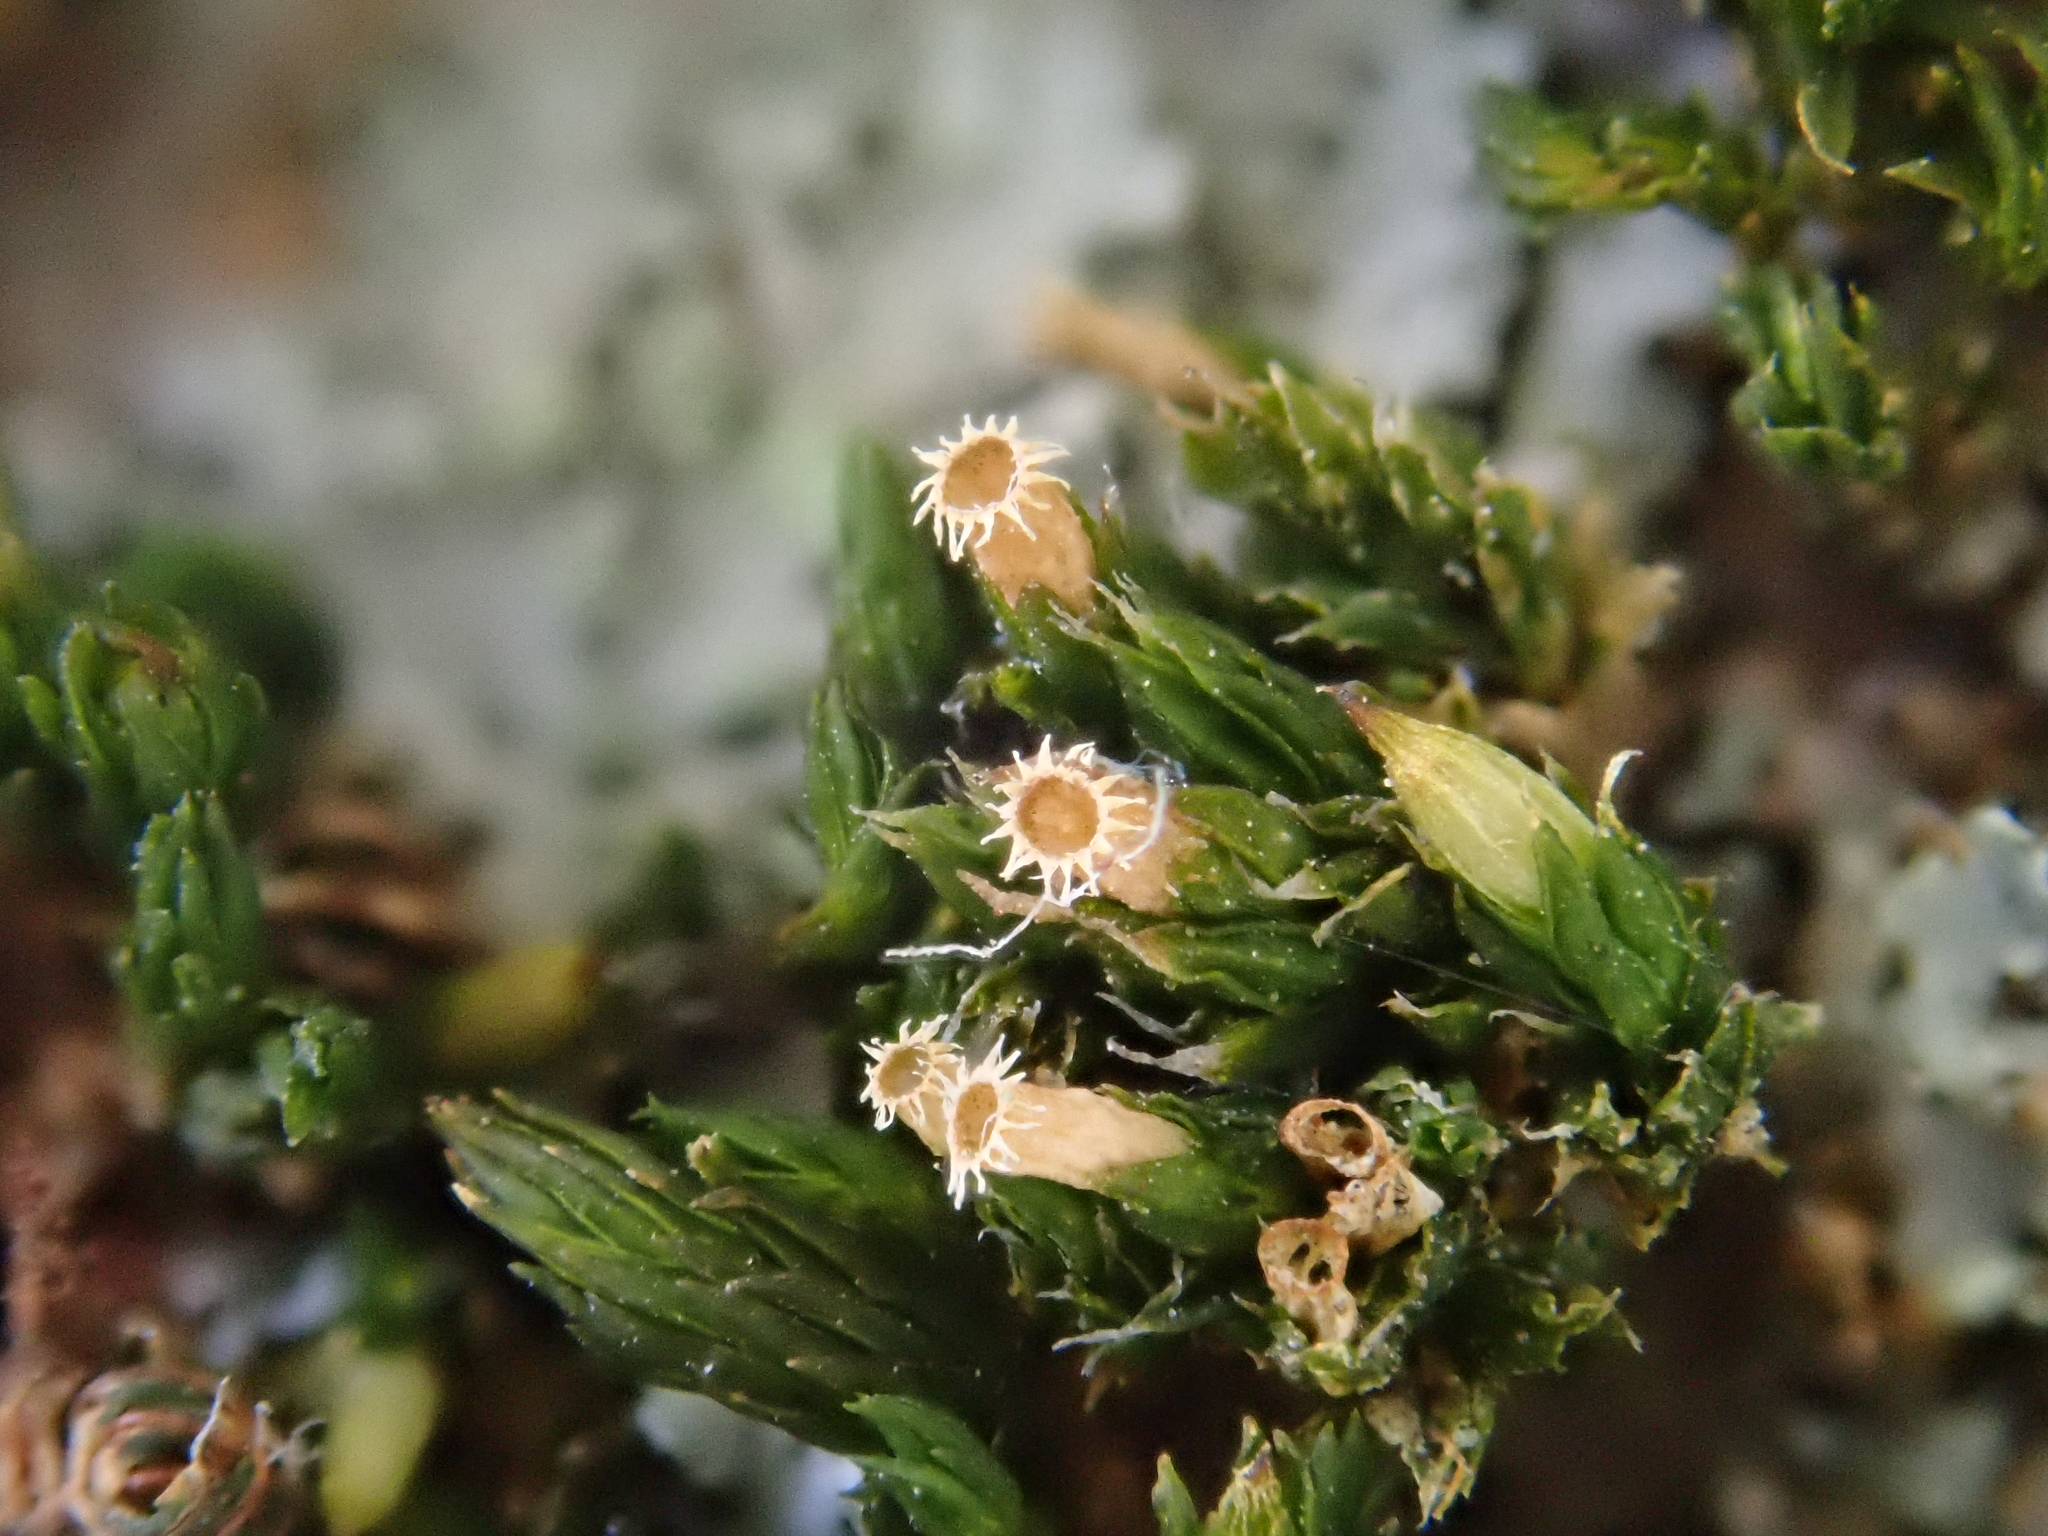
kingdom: Plantae
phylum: Bryophyta
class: Bryopsida
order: Orthotrichales
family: Orthotrichaceae
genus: Orthotrichum
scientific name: Orthotrichum diaphanum
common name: White-tipped bristle-moss
